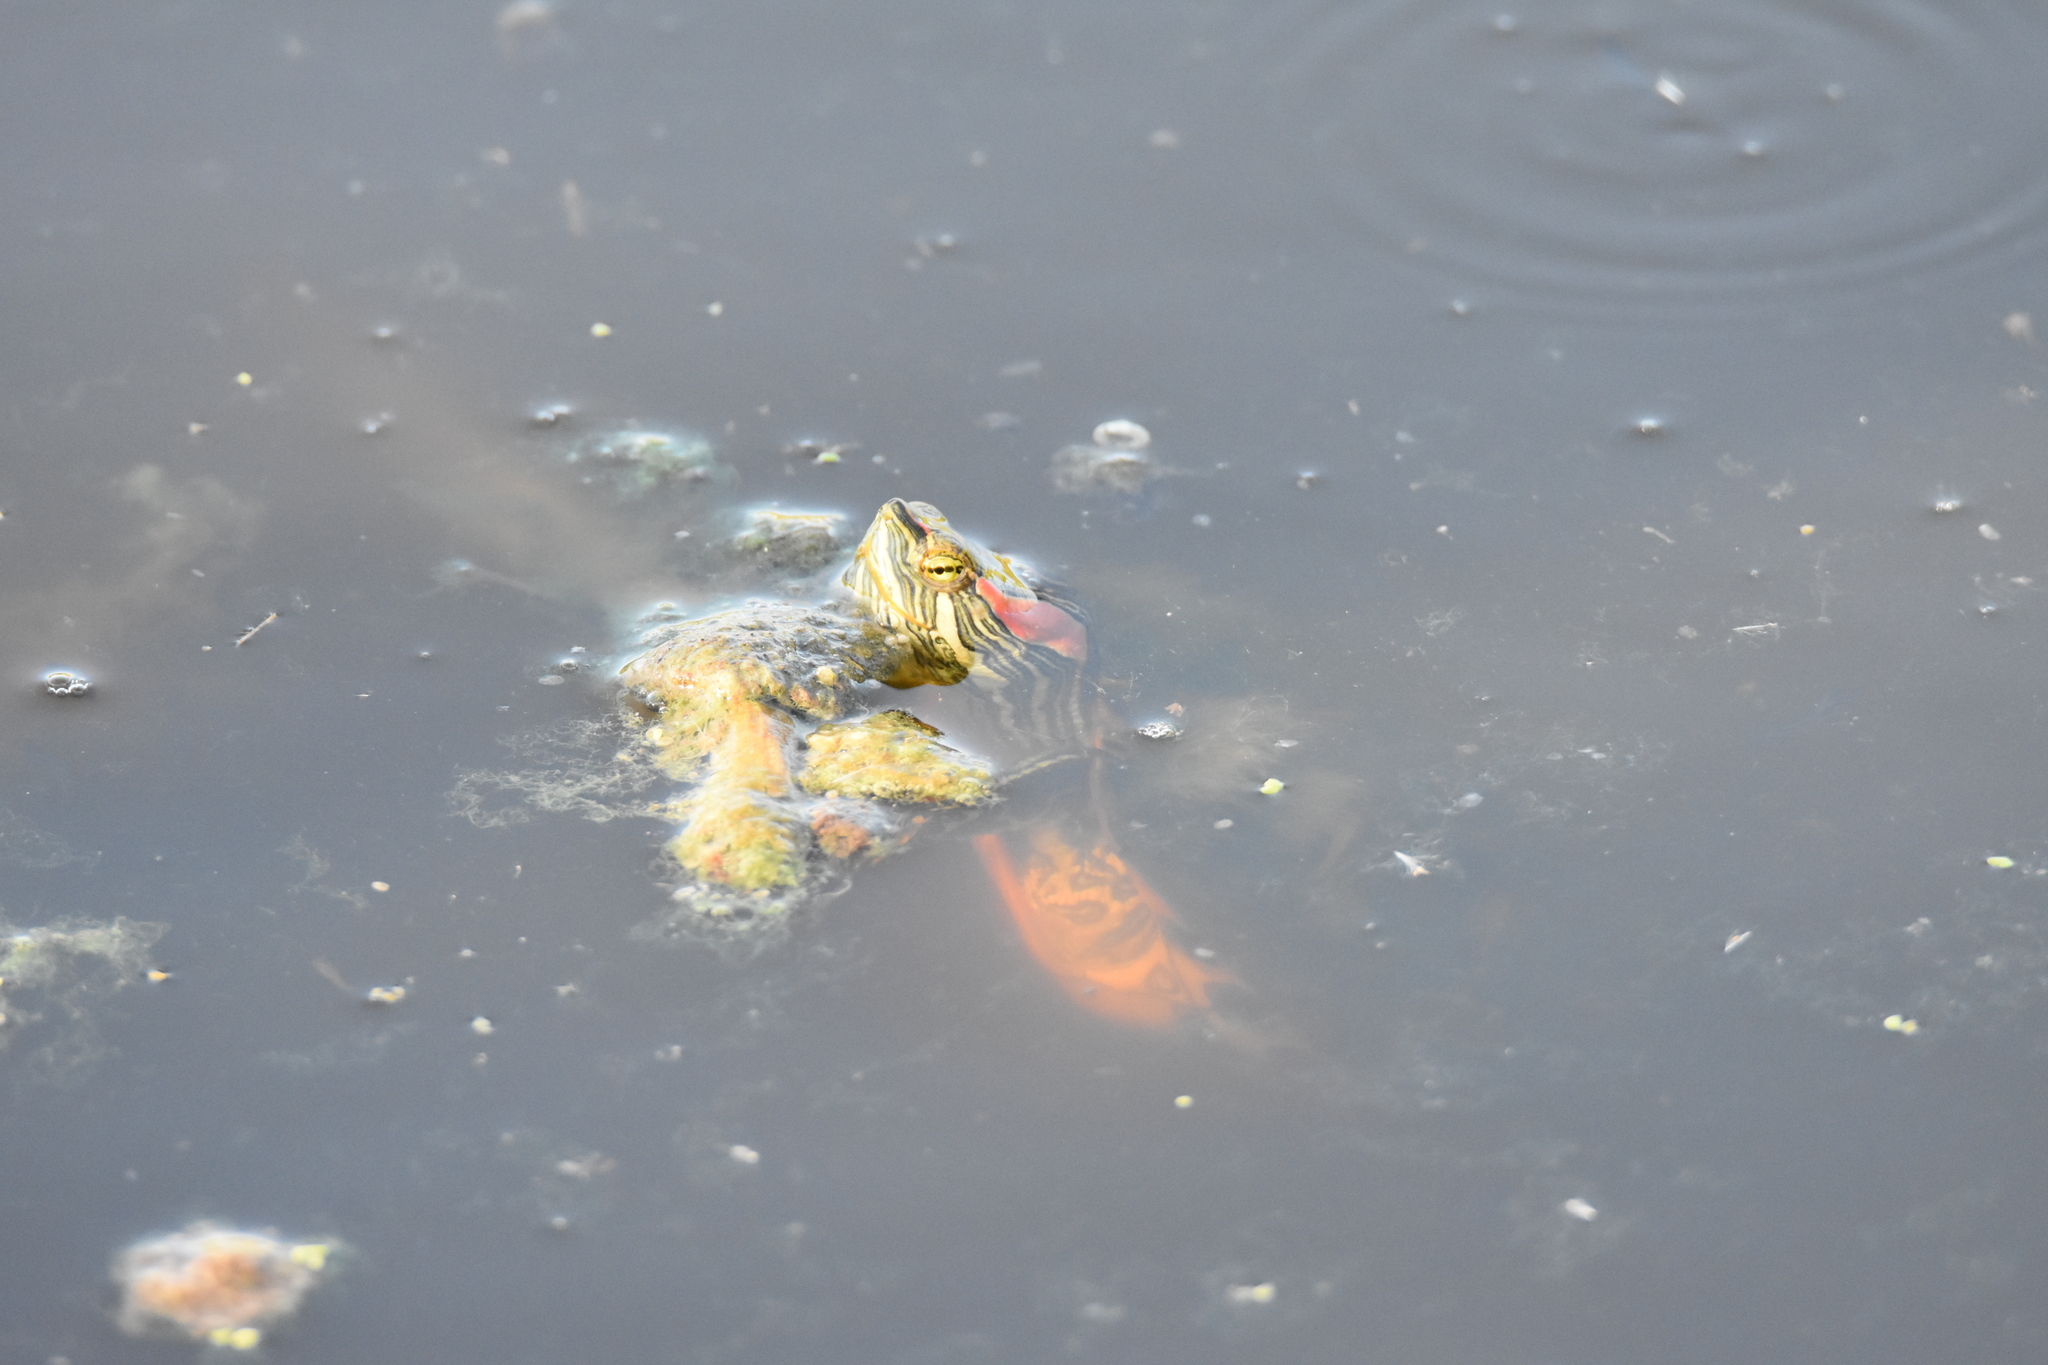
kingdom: Animalia
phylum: Chordata
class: Testudines
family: Emydidae
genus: Trachemys
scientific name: Trachemys scripta
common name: Slider
